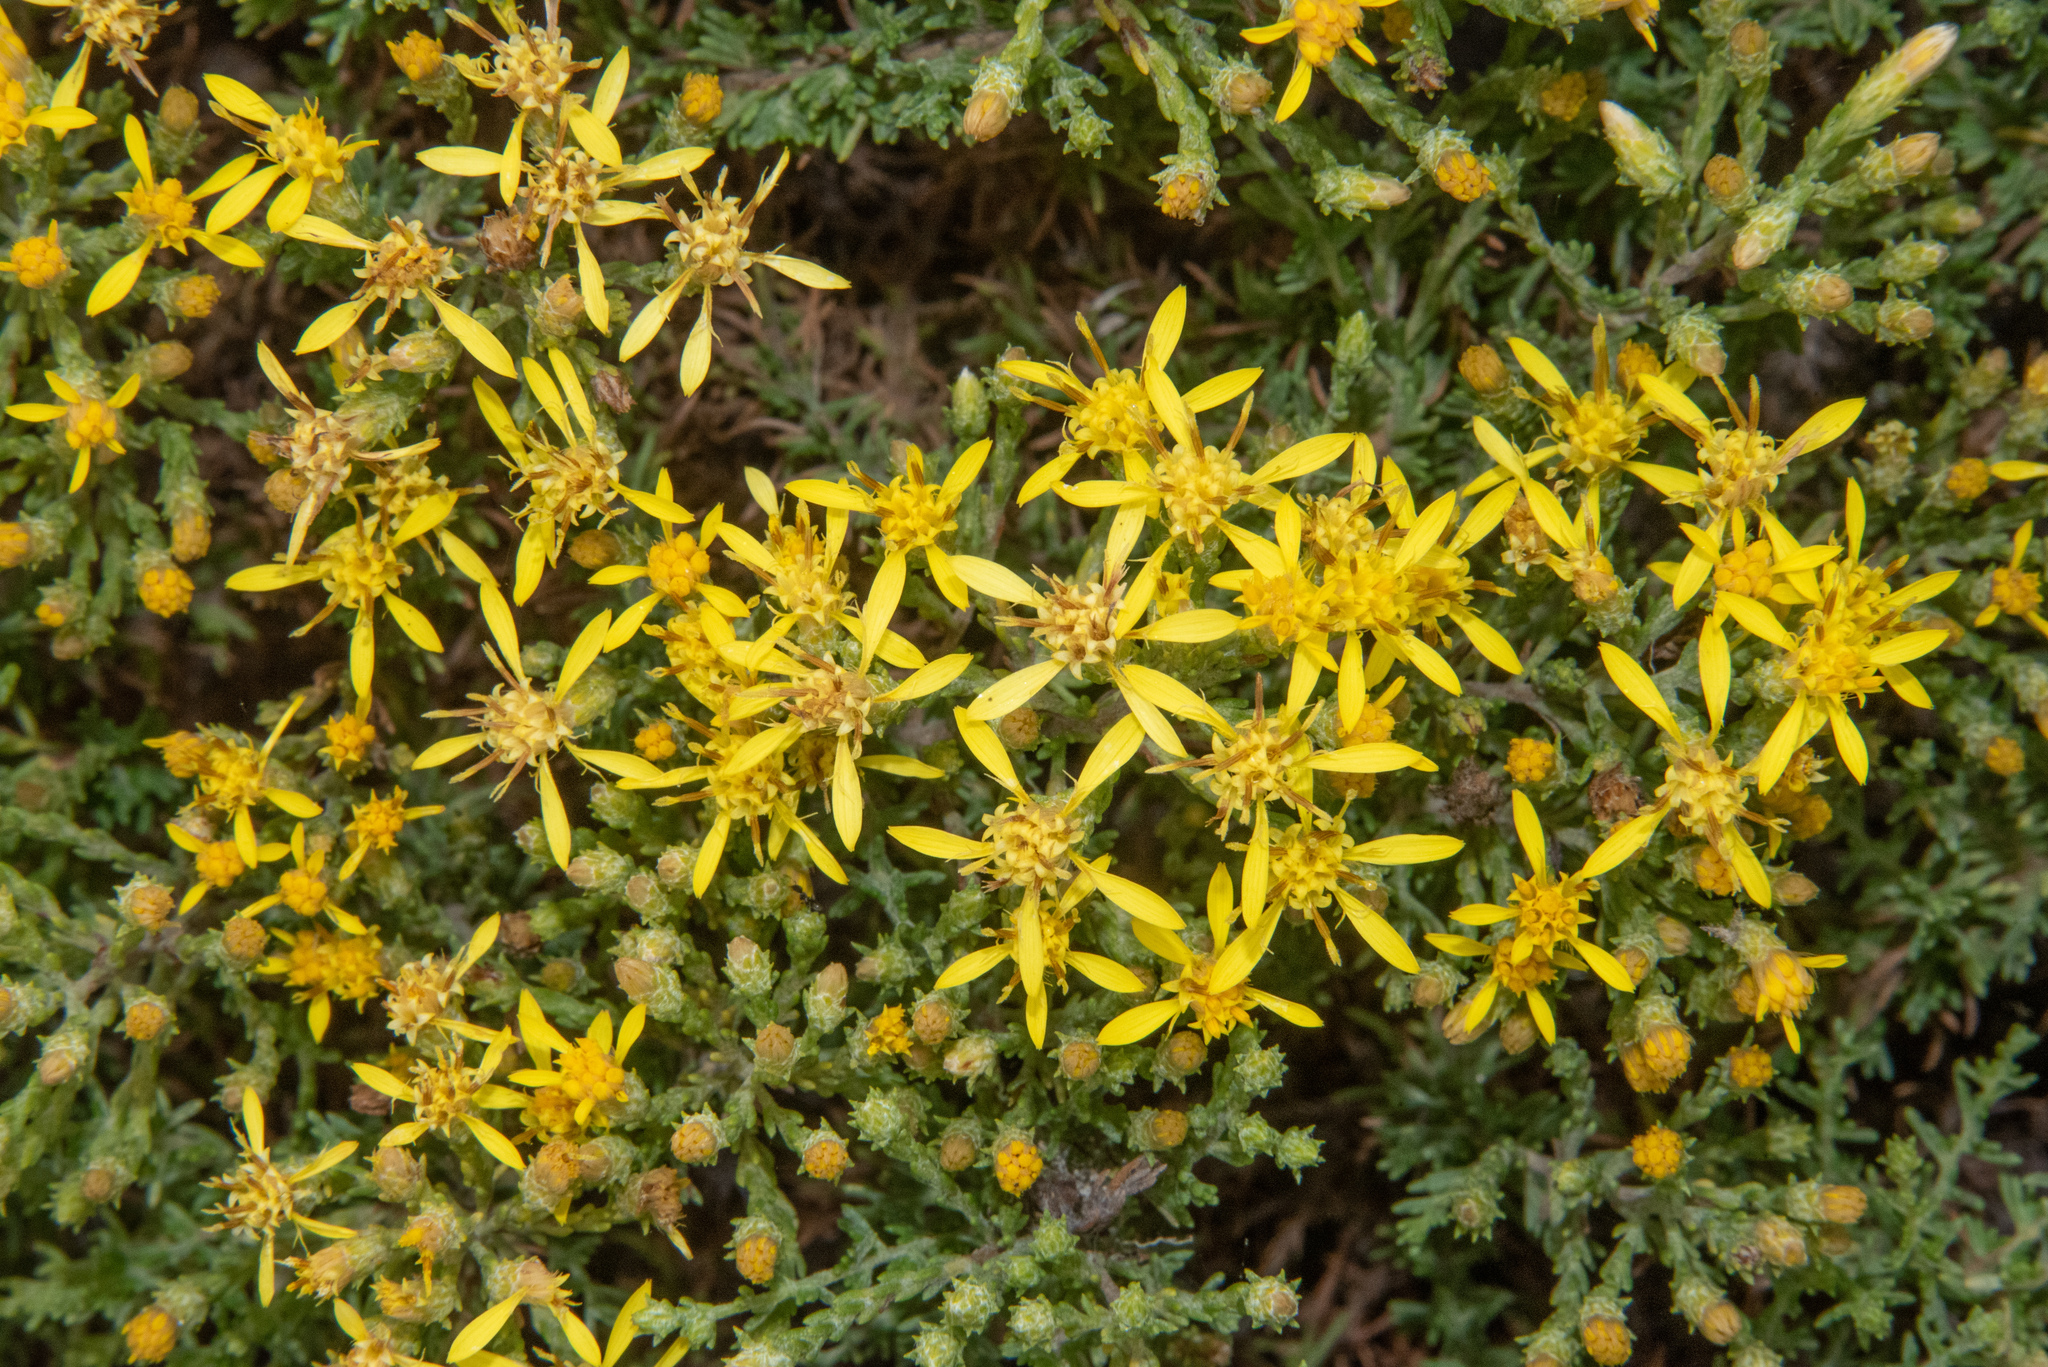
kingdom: Plantae
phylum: Tracheophyta
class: Magnoliopsida
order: Asterales
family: Asteraceae
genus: Ericameria
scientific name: Ericameria ericoides
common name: California goldenbush
